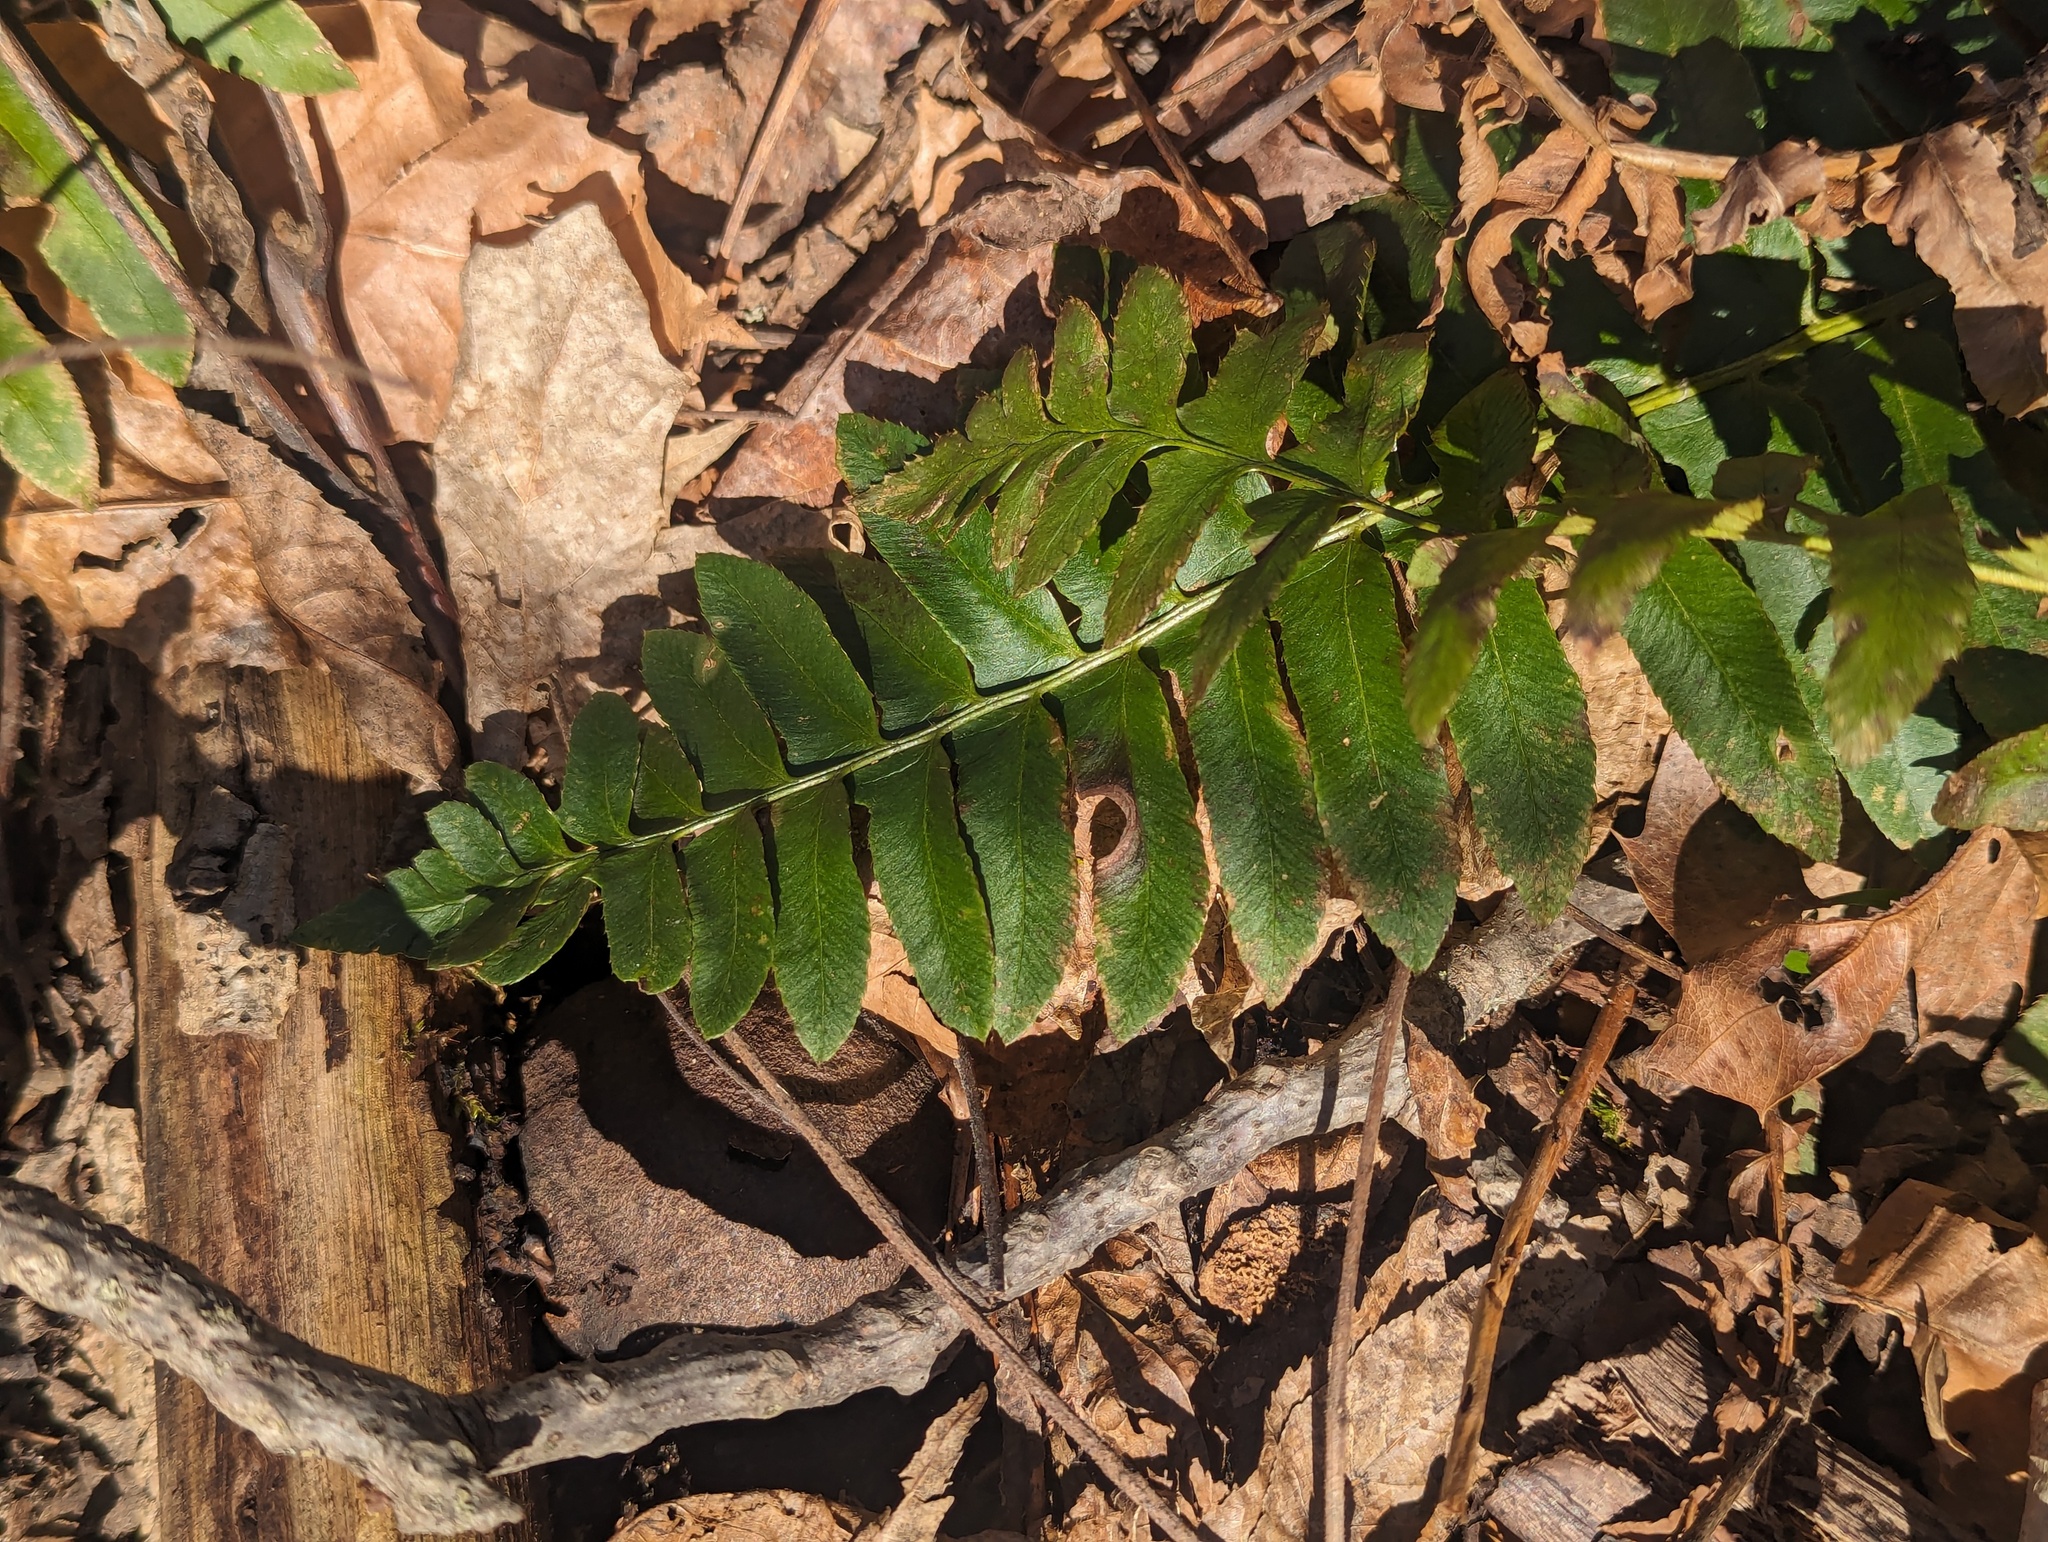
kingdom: Plantae
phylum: Tracheophyta
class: Polypodiopsida
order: Polypodiales
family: Dryopteridaceae
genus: Polystichum
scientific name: Polystichum acrostichoides
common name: Christmas fern
